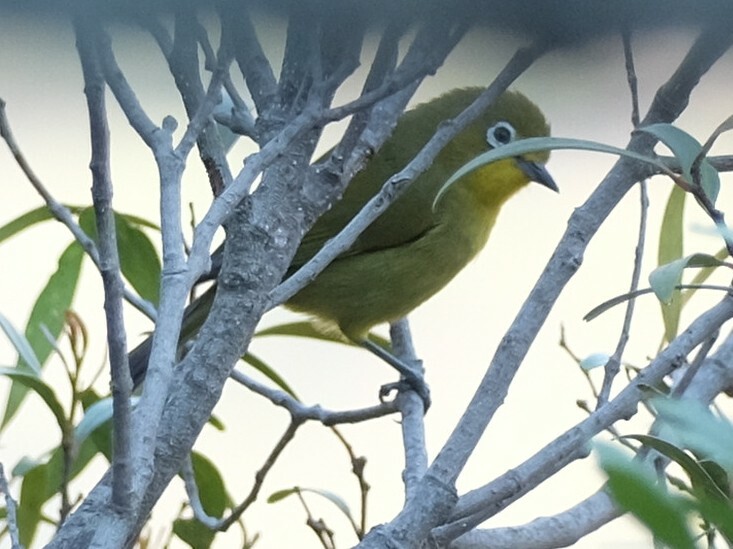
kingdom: Animalia
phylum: Chordata
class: Aves
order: Passeriformes
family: Zosteropidae
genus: Zosterops
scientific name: Zosterops virens
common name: Cape white-eye
